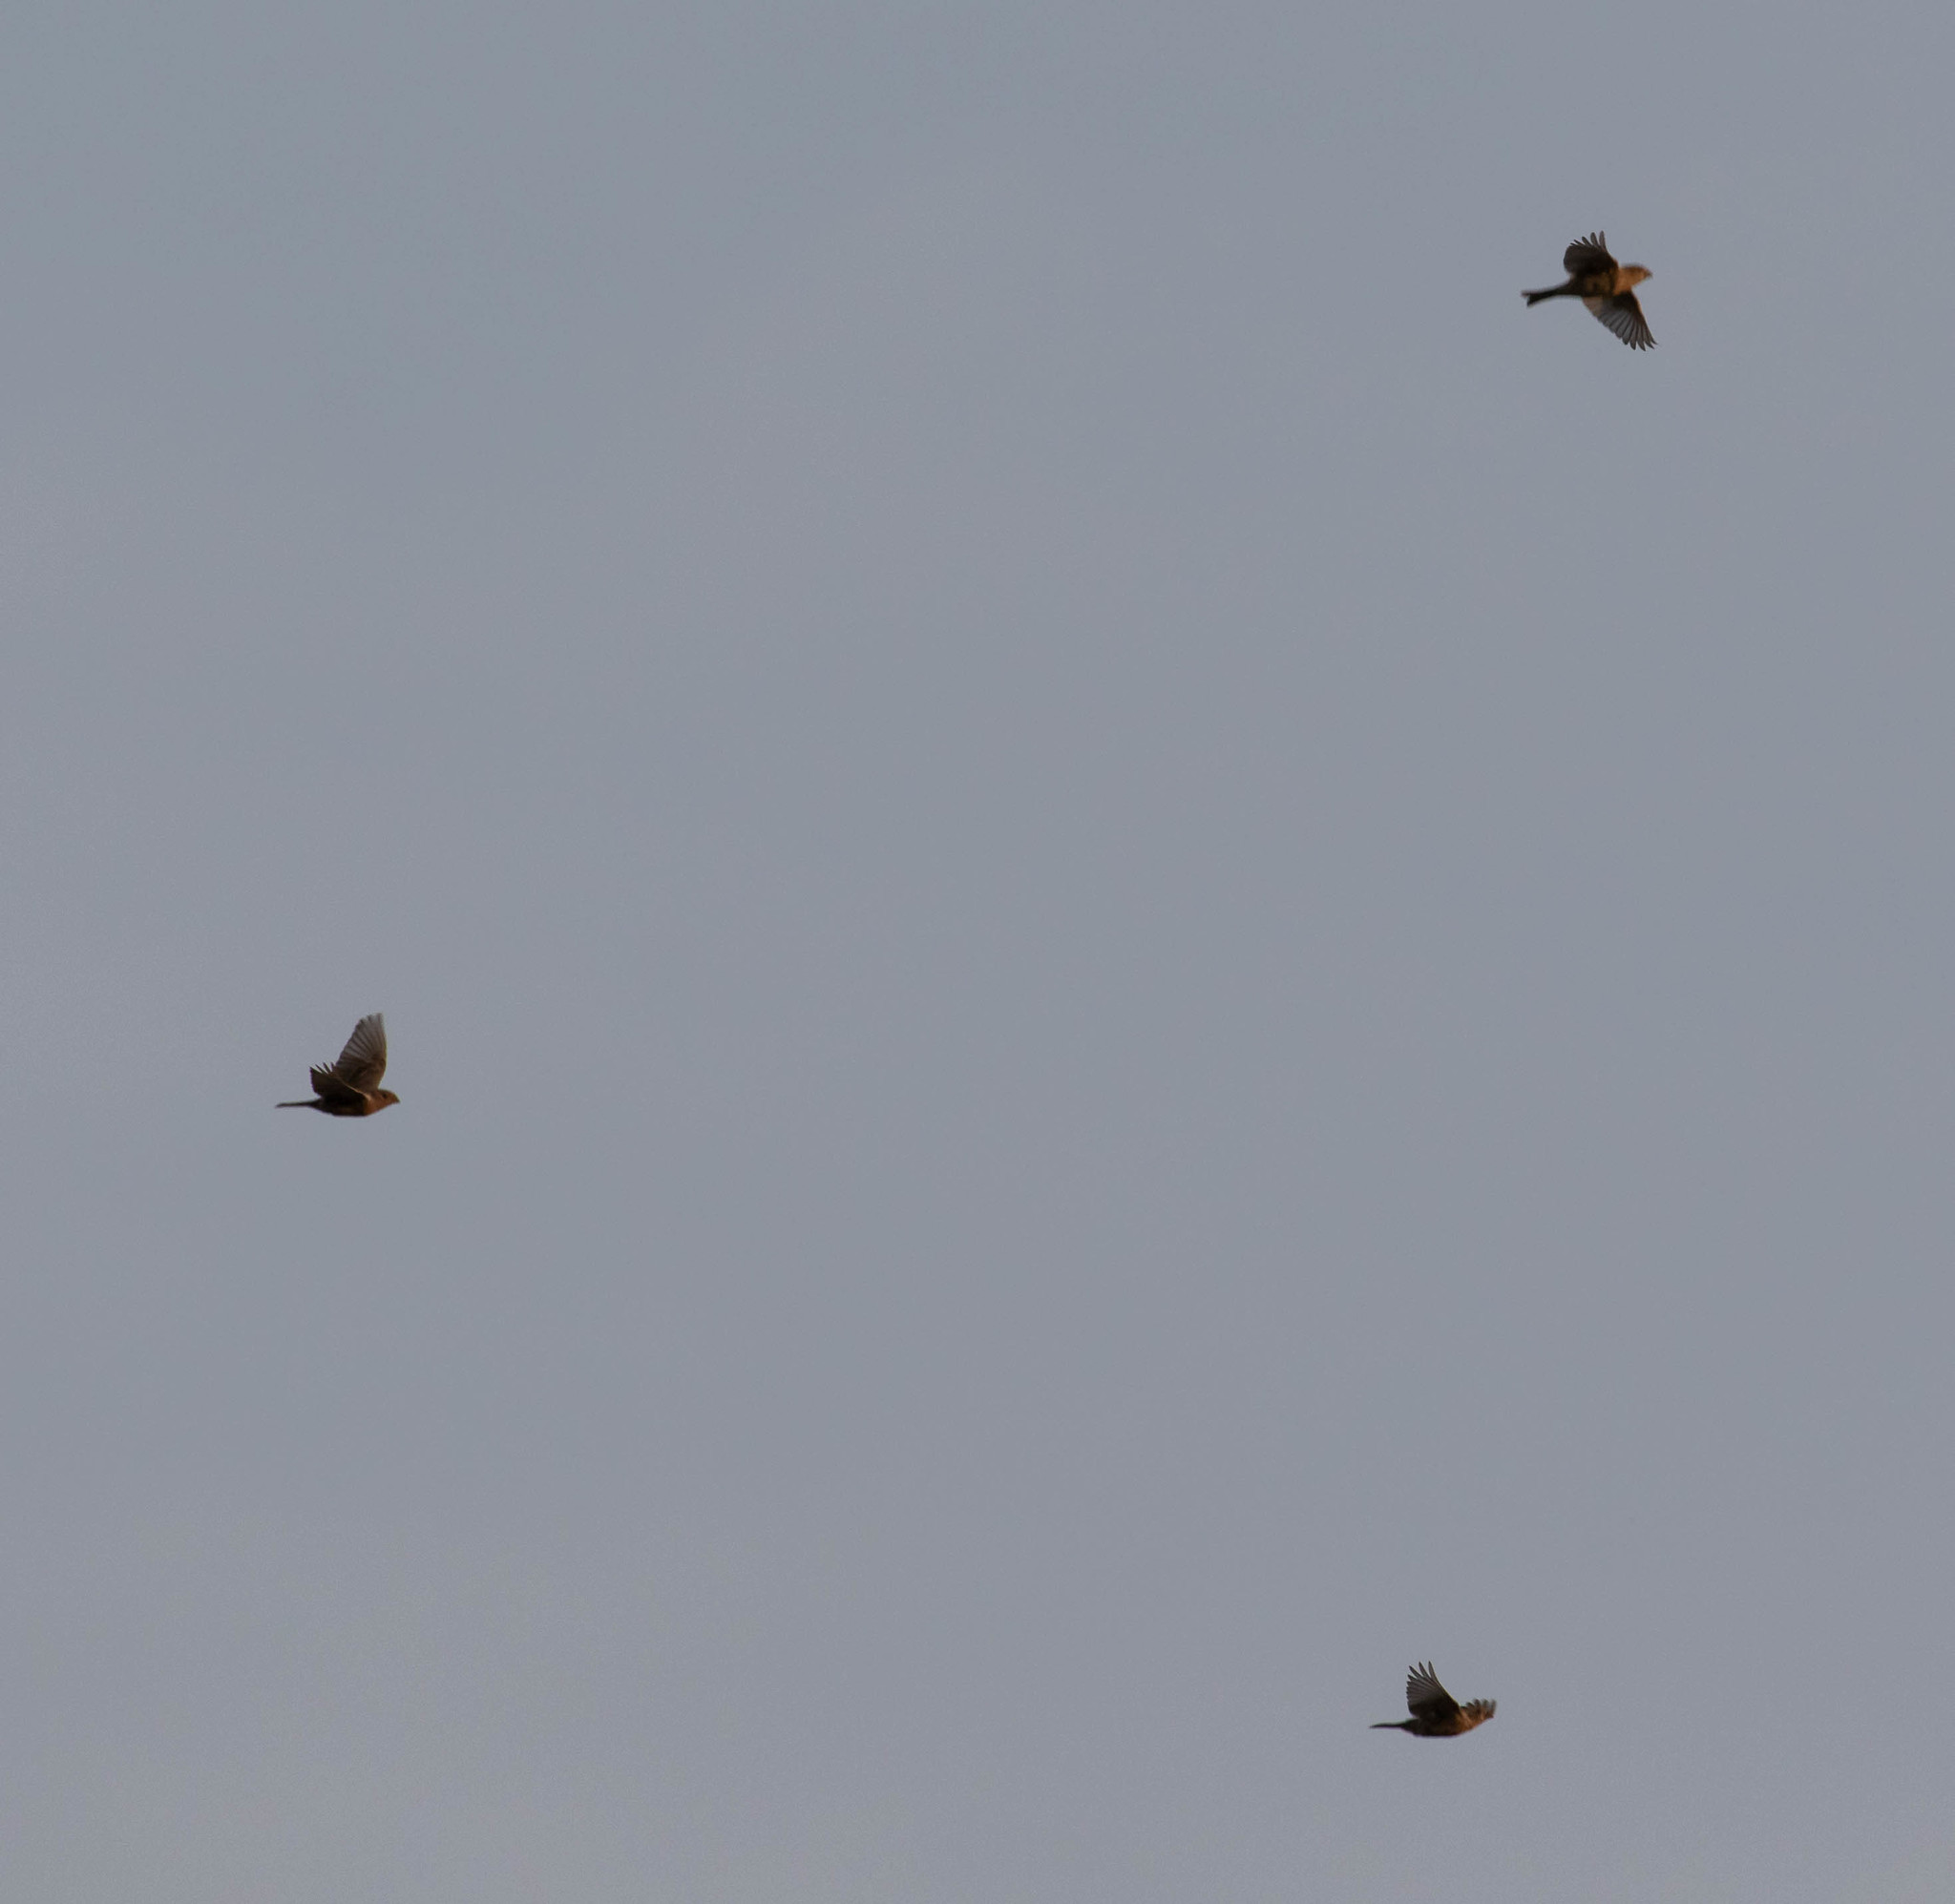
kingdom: Animalia
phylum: Chordata
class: Aves
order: Passeriformes
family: Fringillidae
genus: Haemorhous
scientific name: Haemorhous mexicanus
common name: House finch
